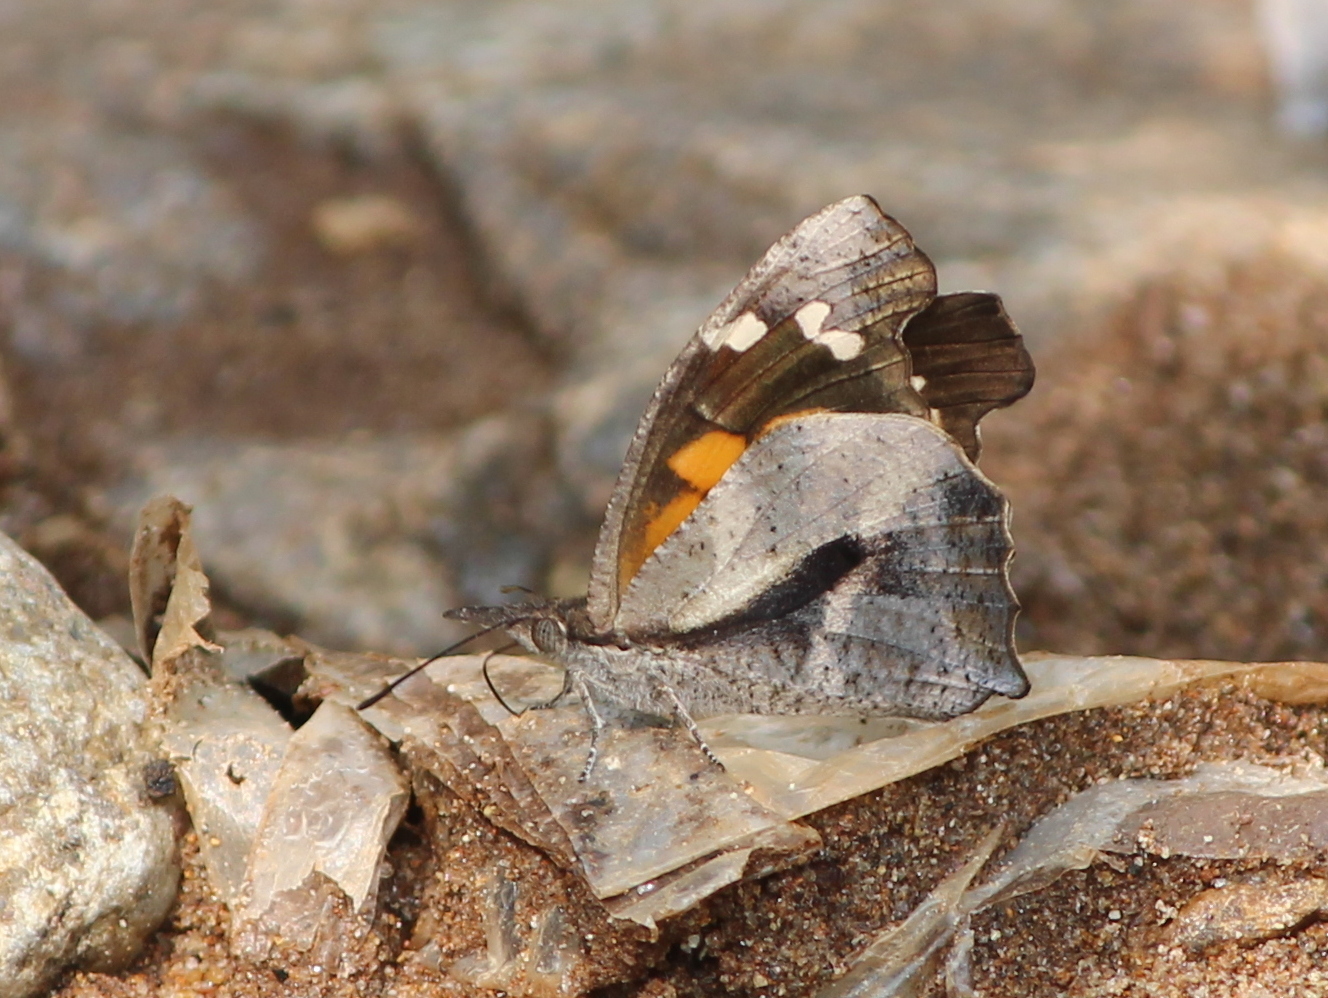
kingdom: Animalia
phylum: Arthropoda
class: Insecta
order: Lepidoptera
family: Nymphalidae
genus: Libythea
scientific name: Libythea laius
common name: African snout
